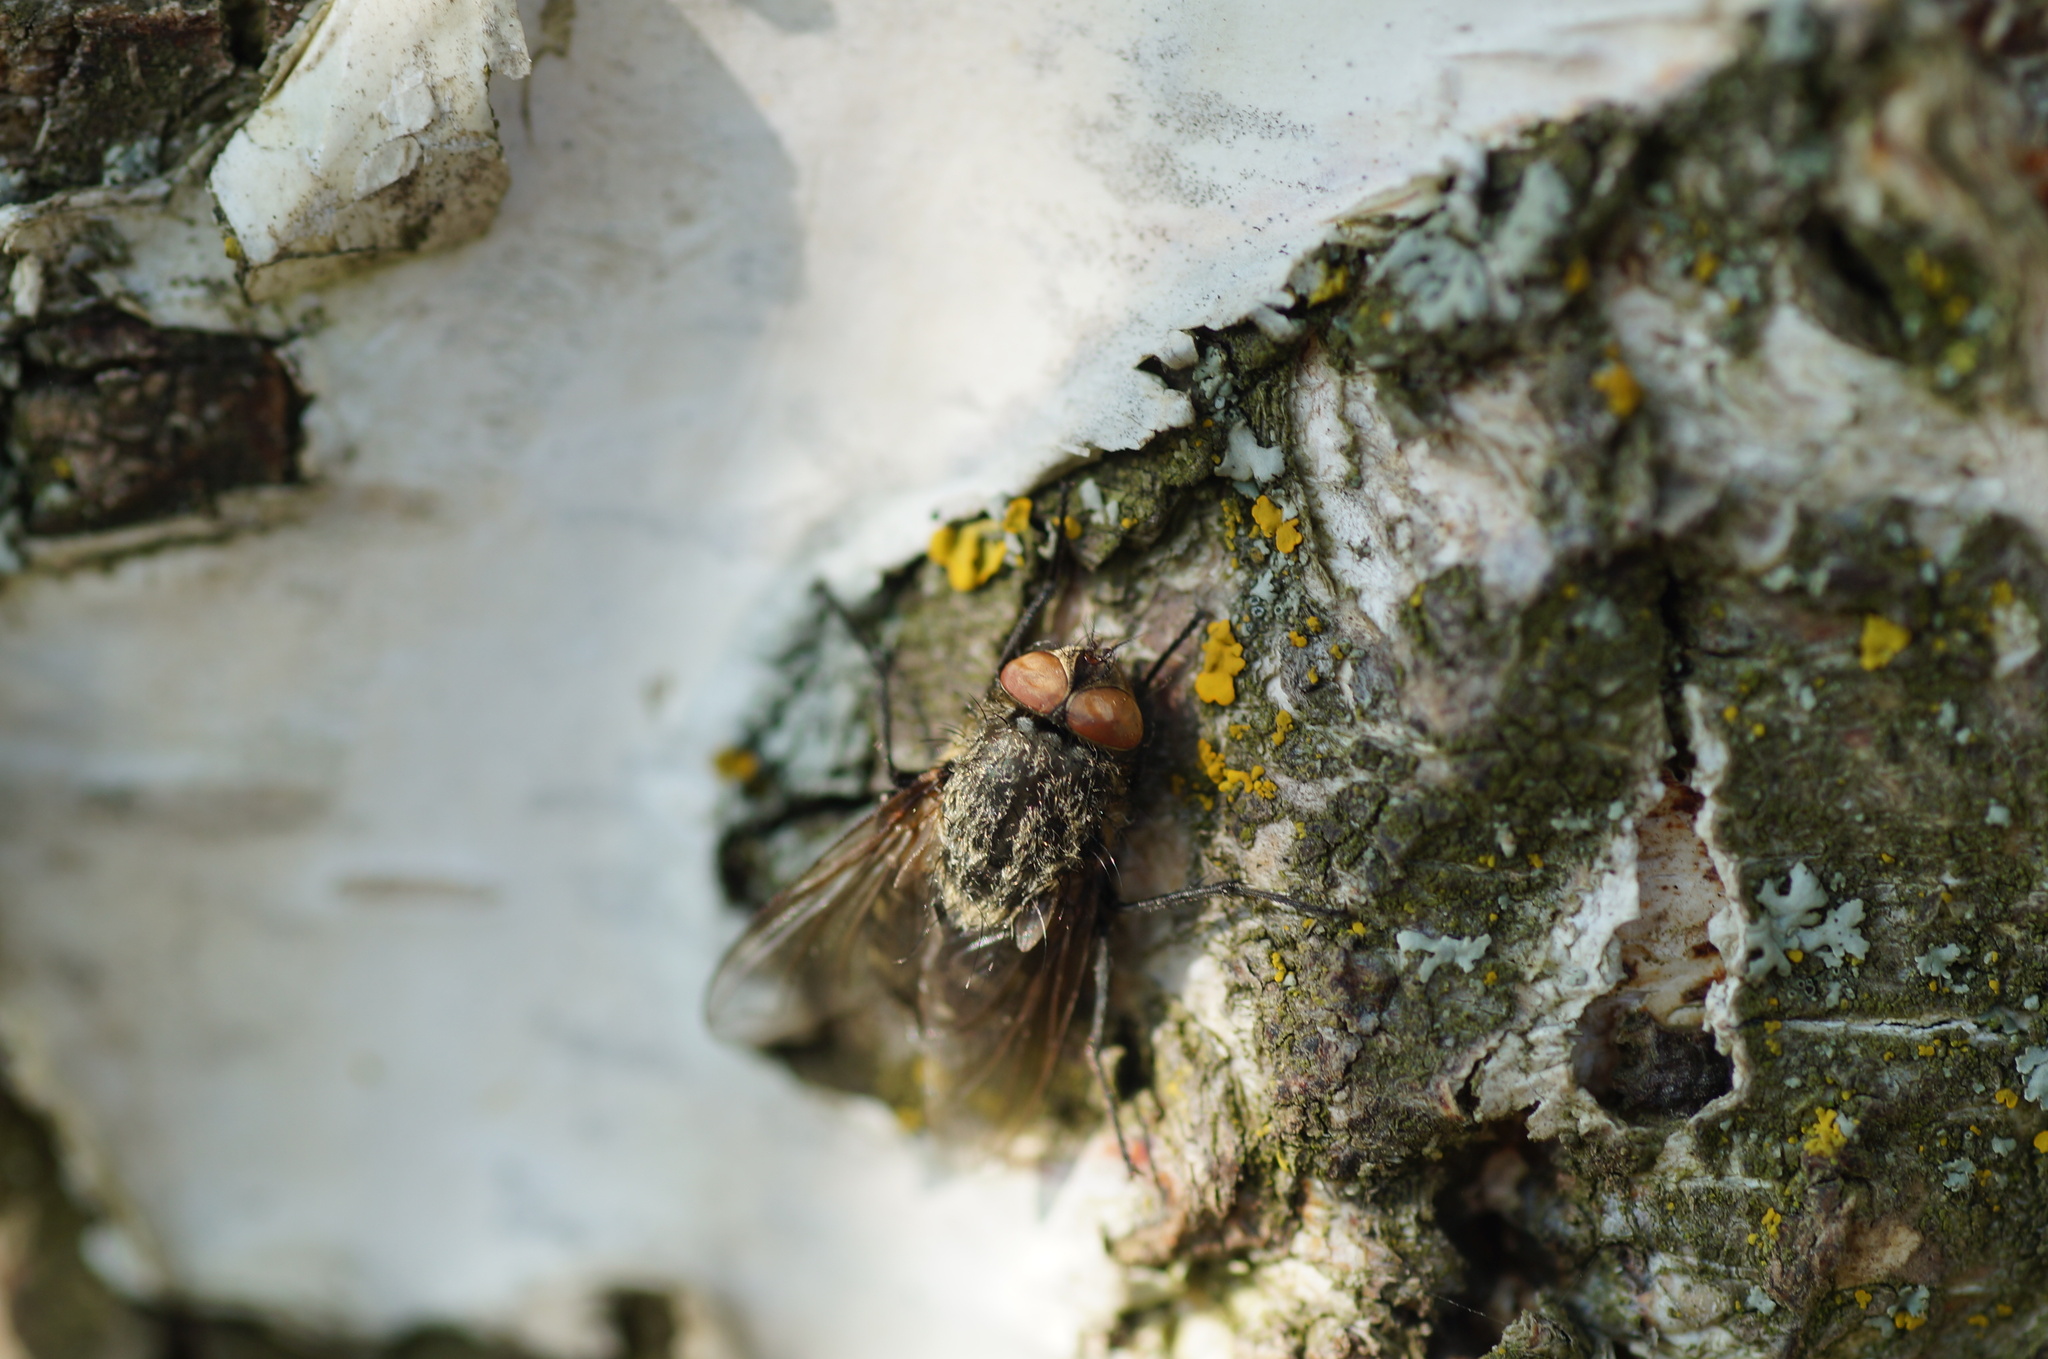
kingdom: Animalia
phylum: Arthropoda
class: Insecta
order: Diptera
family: Polleniidae
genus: Pollenia
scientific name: Pollenia
